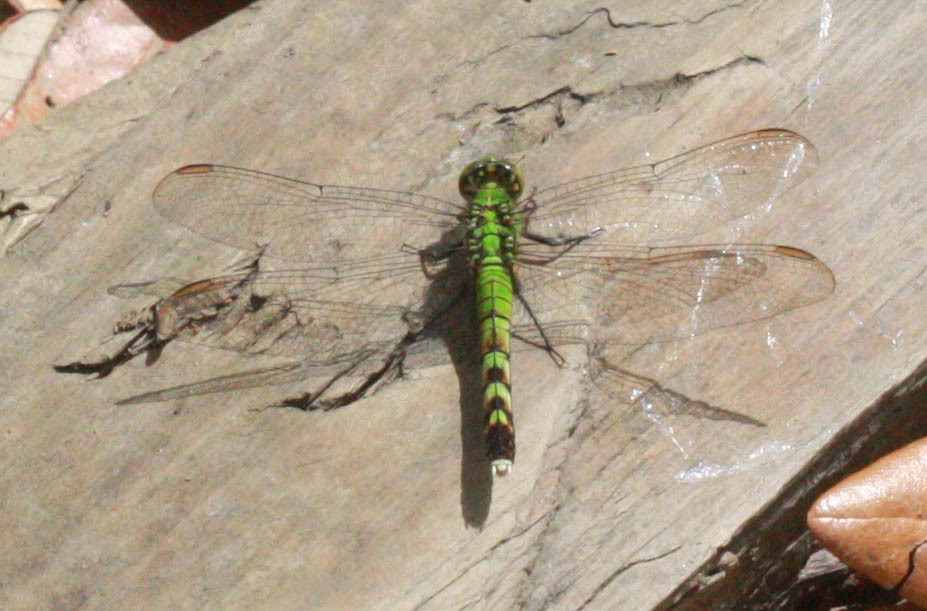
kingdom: Animalia
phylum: Arthropoda
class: Insecta
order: Odonata
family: Libellulidae
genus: Erythemis
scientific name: Erythemis simplicicollis
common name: Eastern pondhawk
